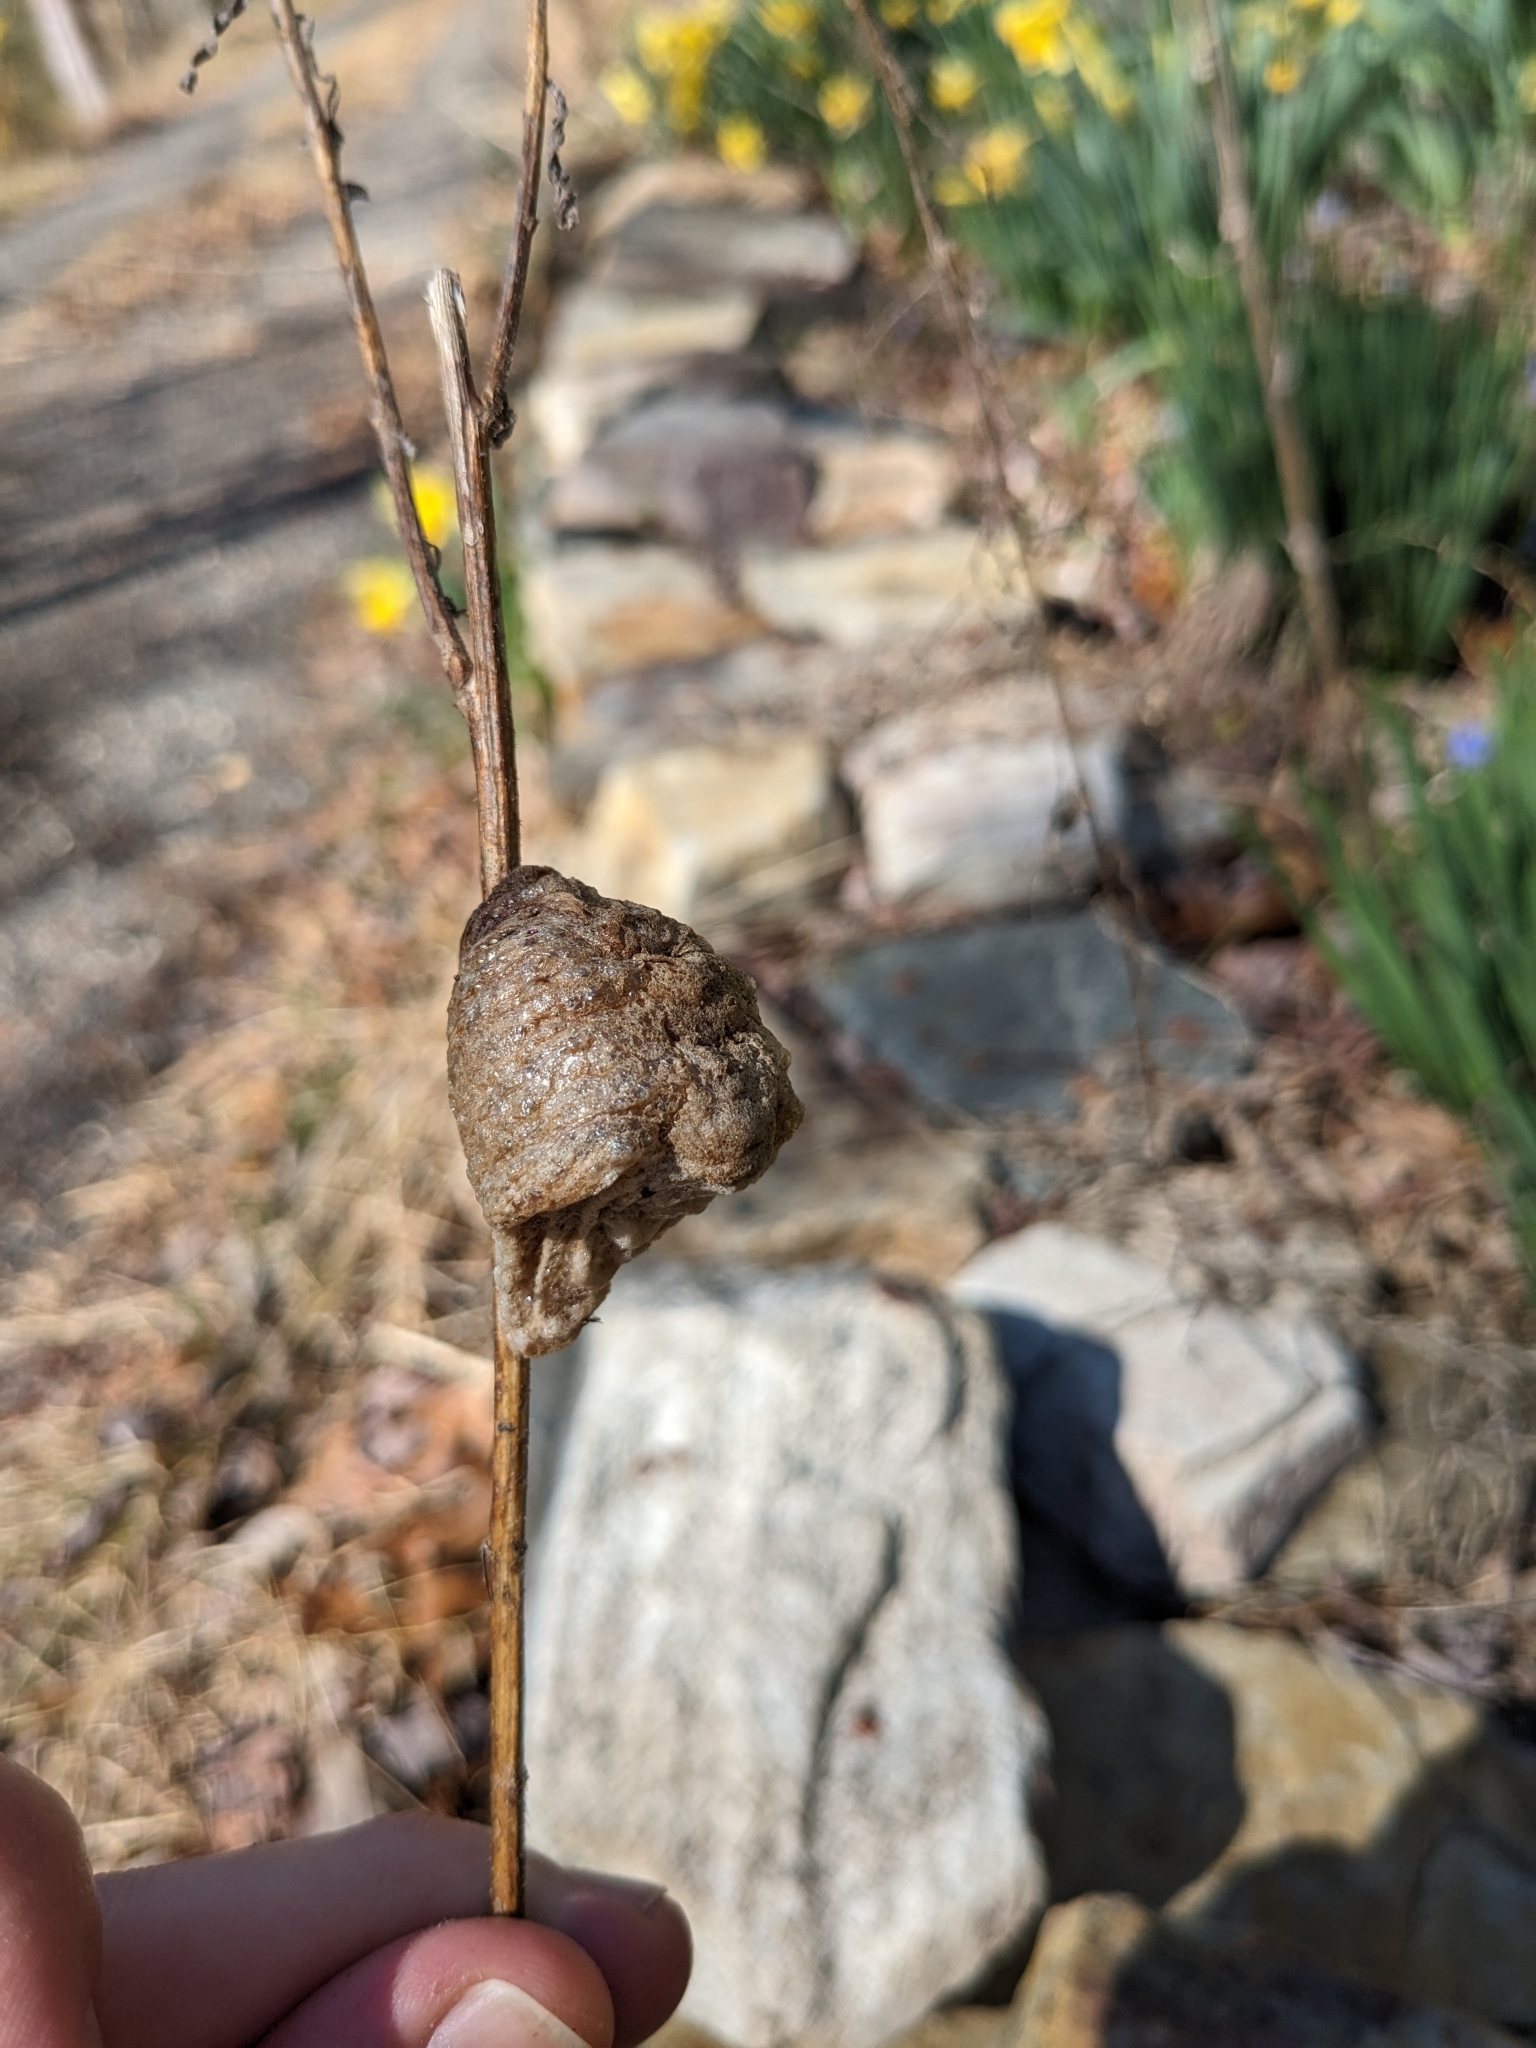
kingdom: Animalia
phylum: Arthropoda
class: Insecta
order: Mantodea
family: Mantidae
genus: Tenodera
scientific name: Tenodera sinensis
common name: Chinese mantis
